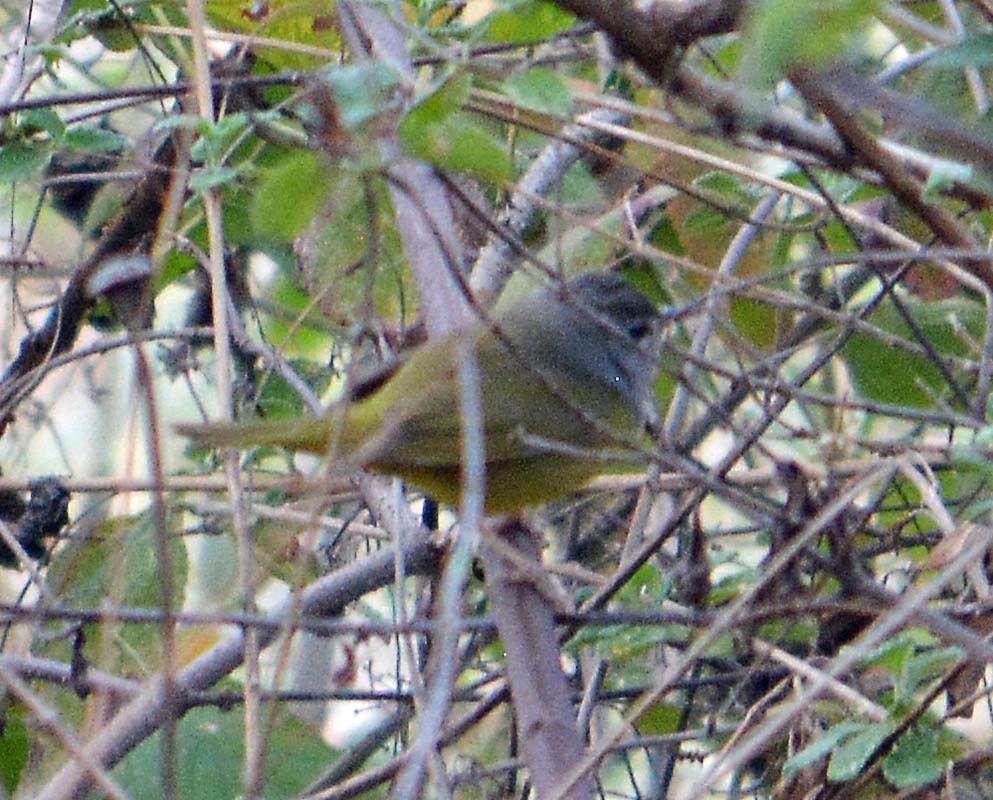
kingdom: Animalia
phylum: Chordata
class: Aves
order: Passeriformes
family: Parulidae
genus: Leiothlypis
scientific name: Leiothlypis ruficapilla
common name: Nashville warbler
